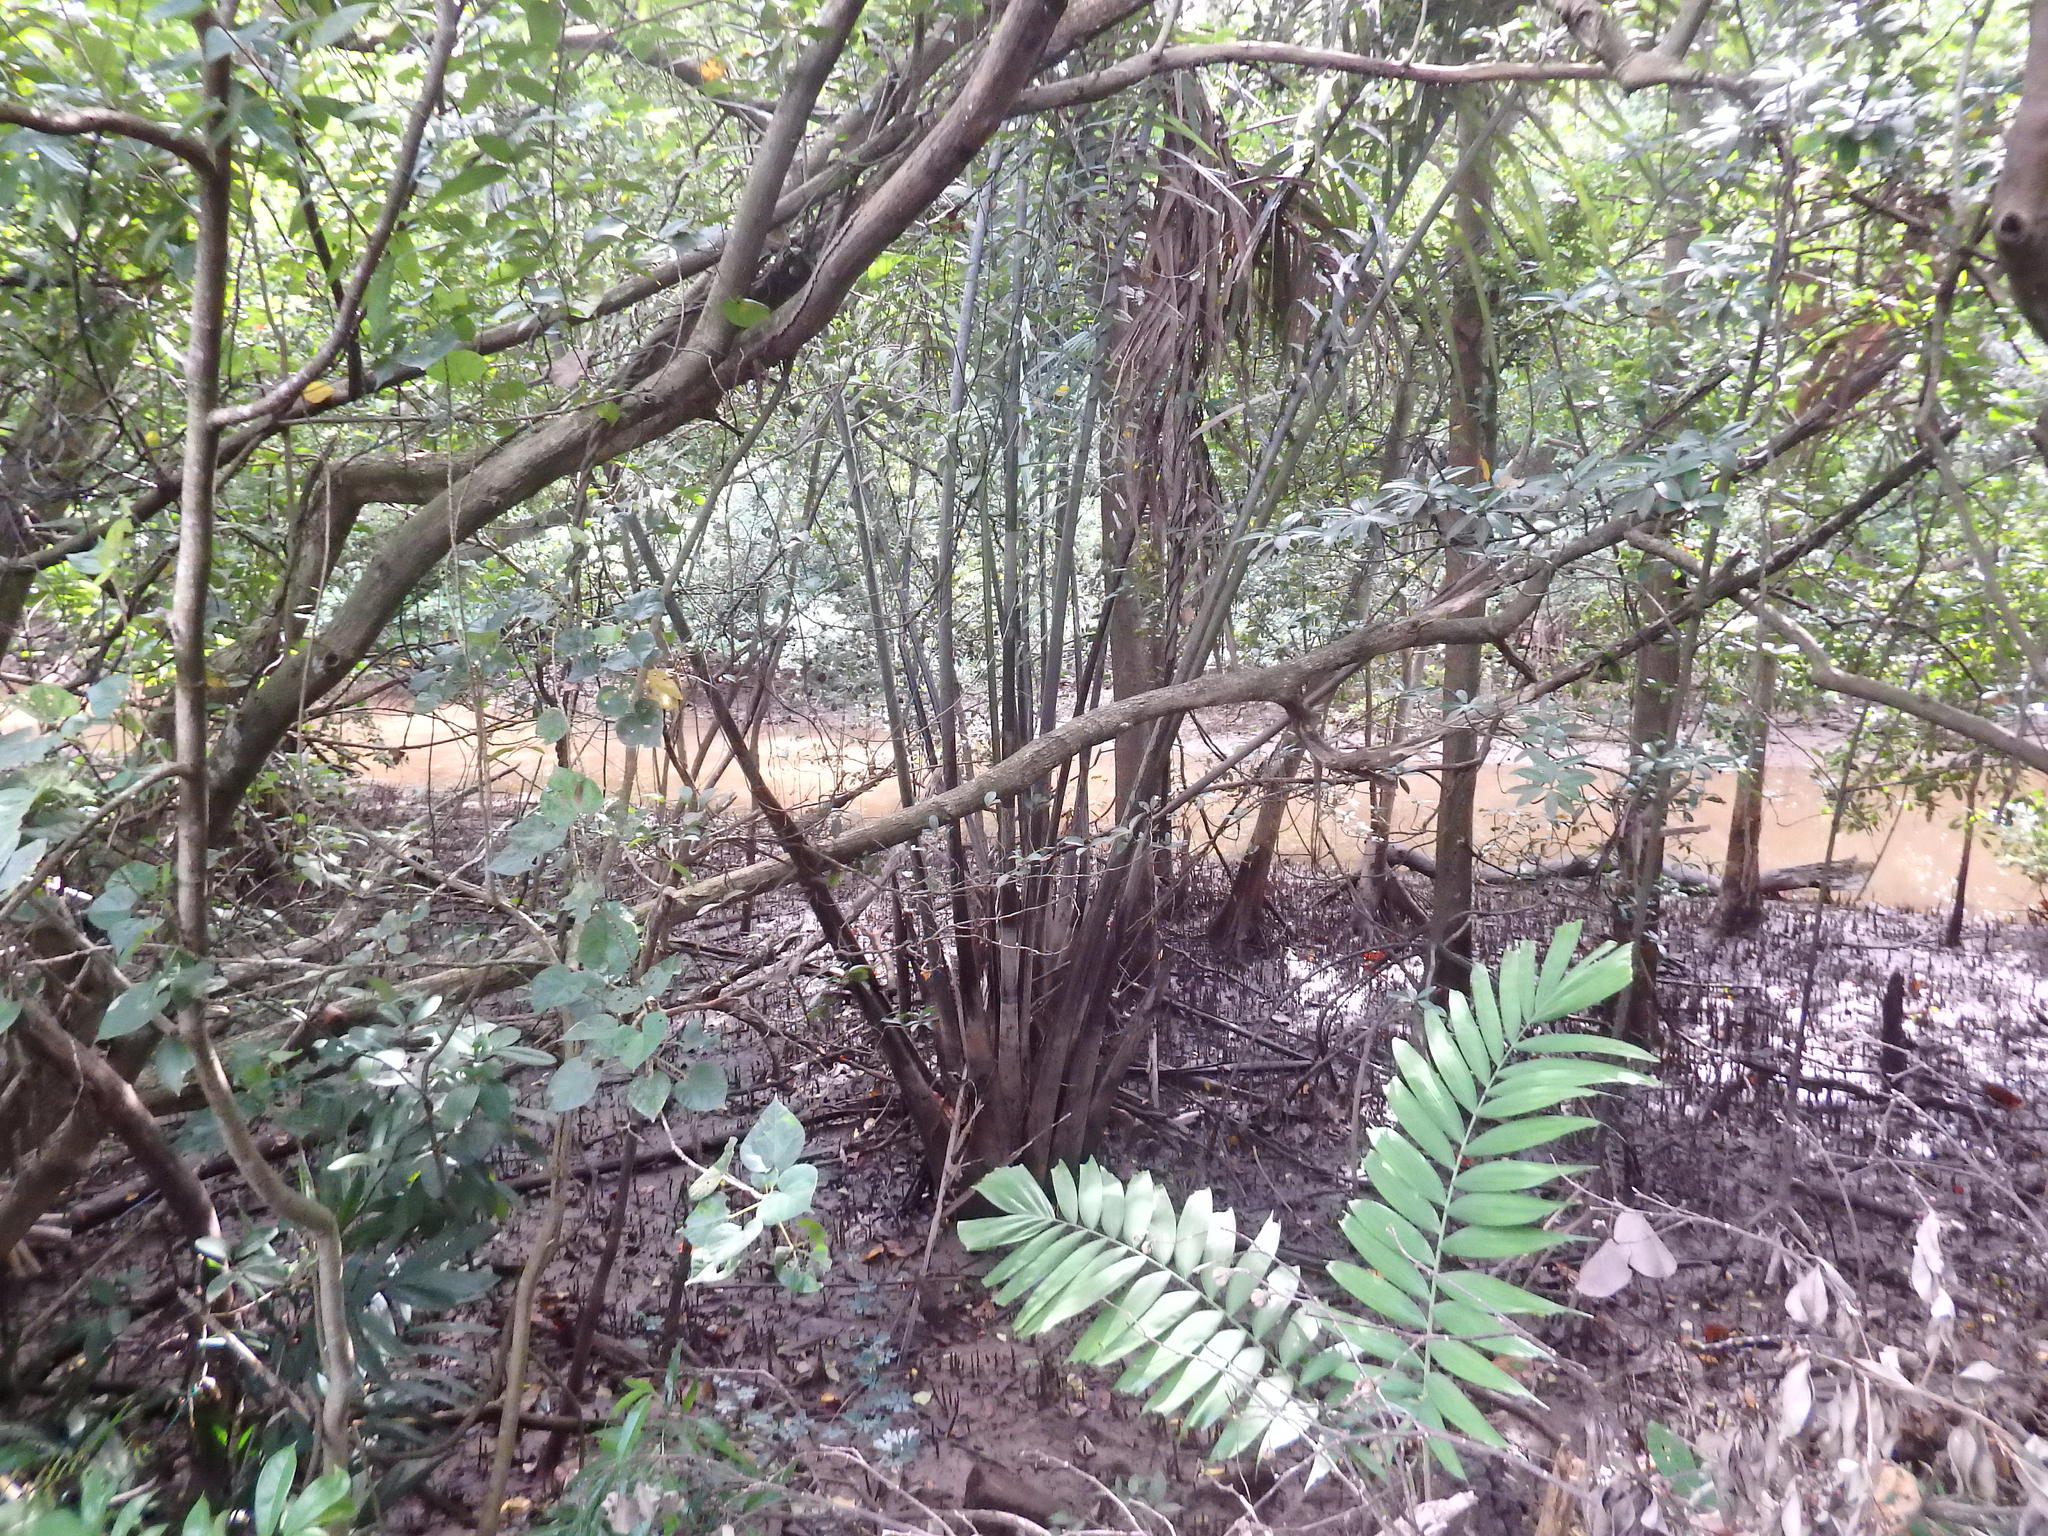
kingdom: Plantae
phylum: Tracheophyta
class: Liliopsida
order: Arecales
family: Arecaceae
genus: Nypa
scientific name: Nypa fruticans
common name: Mangrove palm
